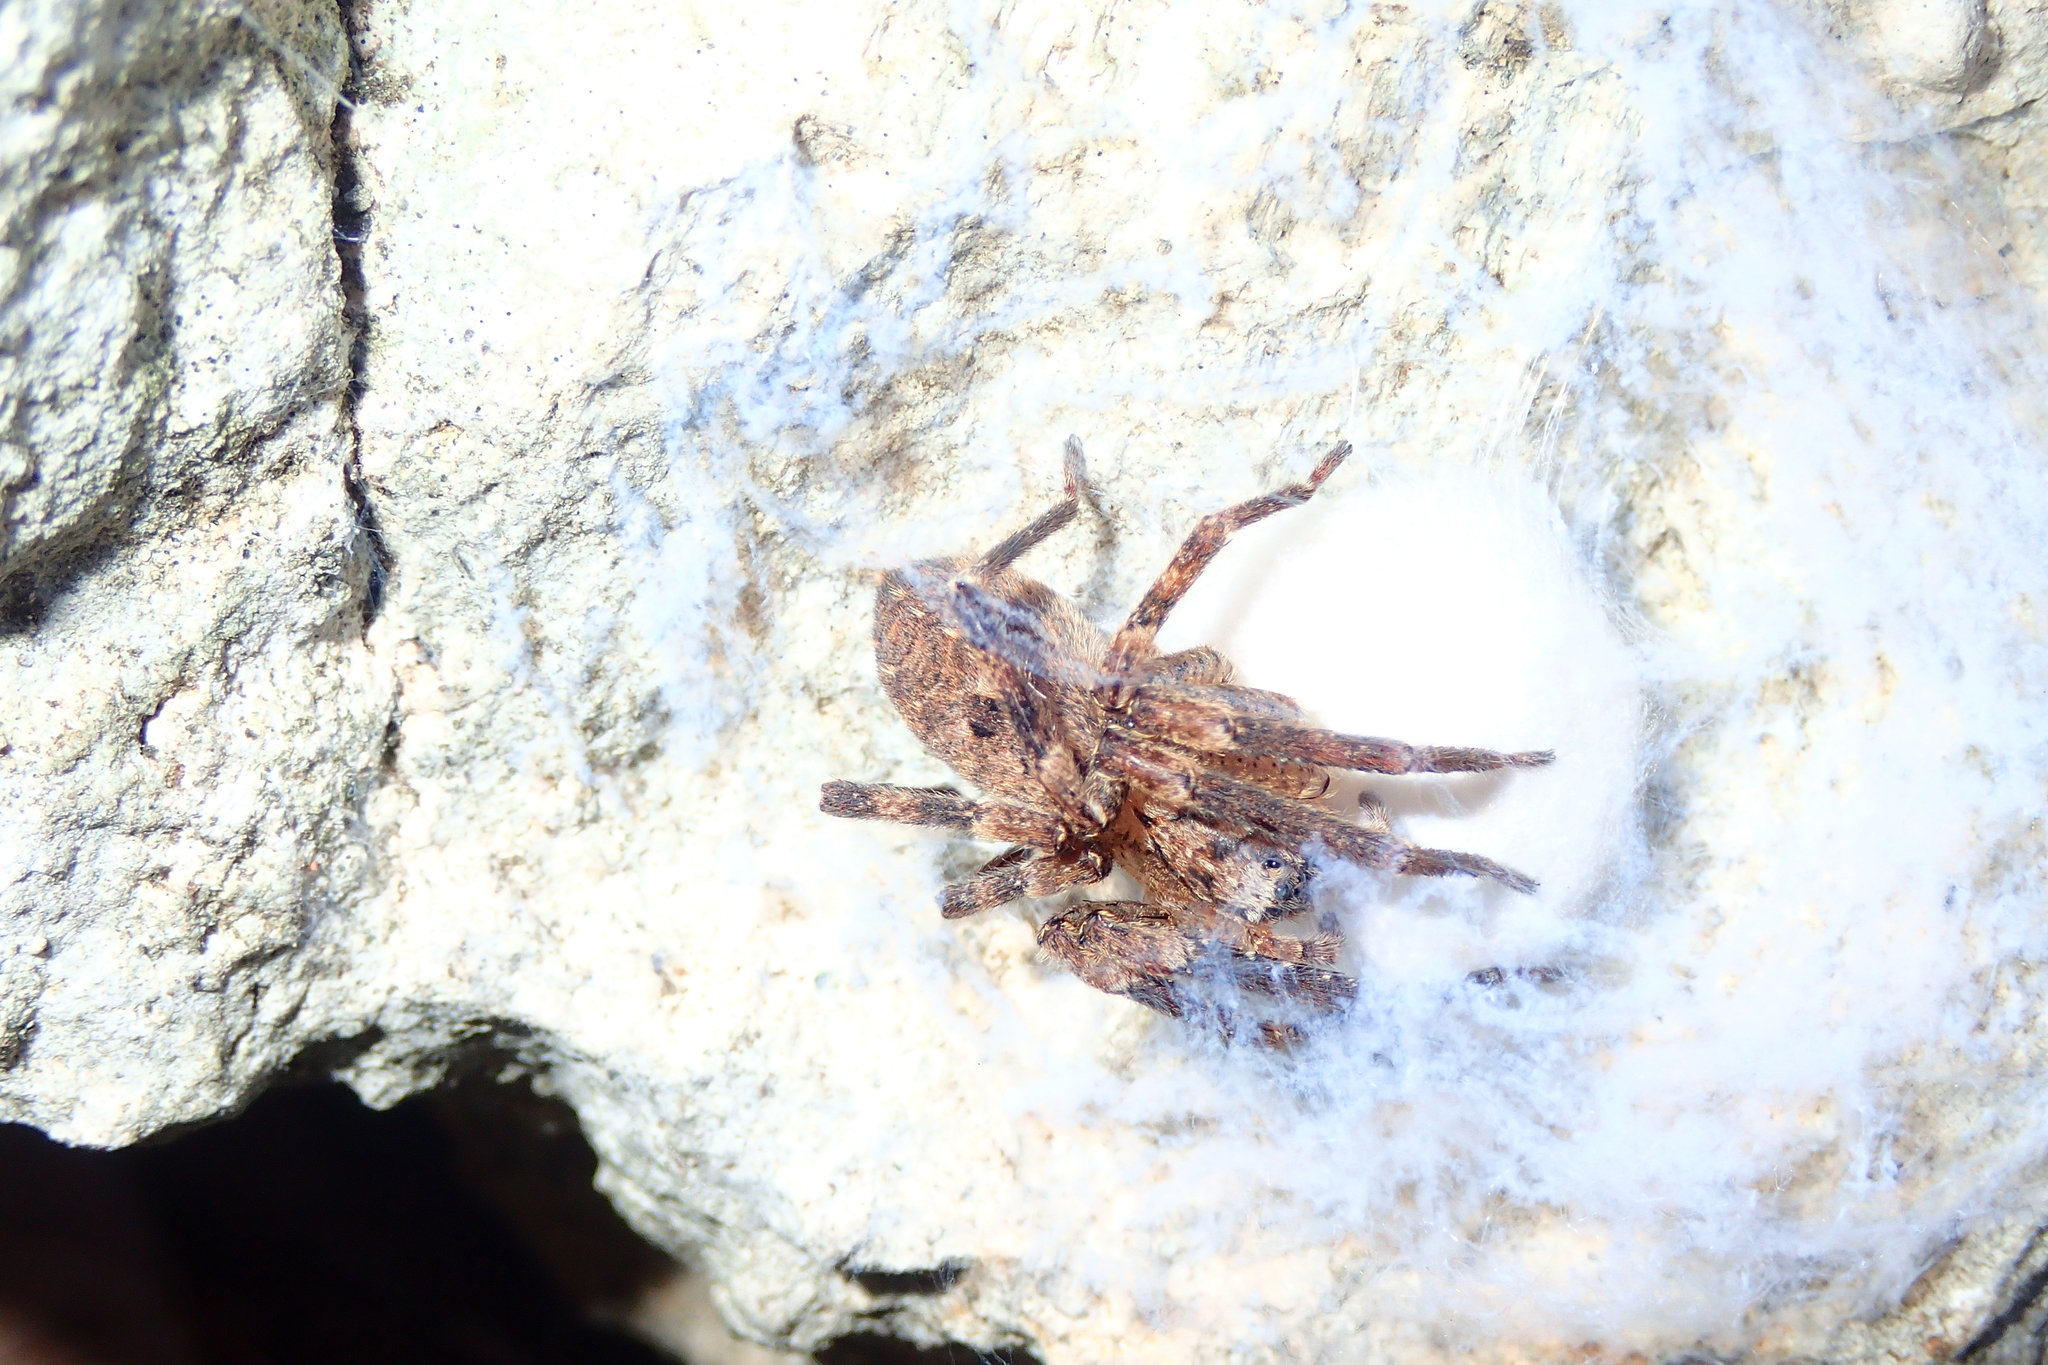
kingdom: Animalia
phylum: Arthropoda
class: Arachnida
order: Araneae
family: Zoropsidae
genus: Zoropsis
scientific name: Zoropsis spinimana
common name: Zoropsid spider
